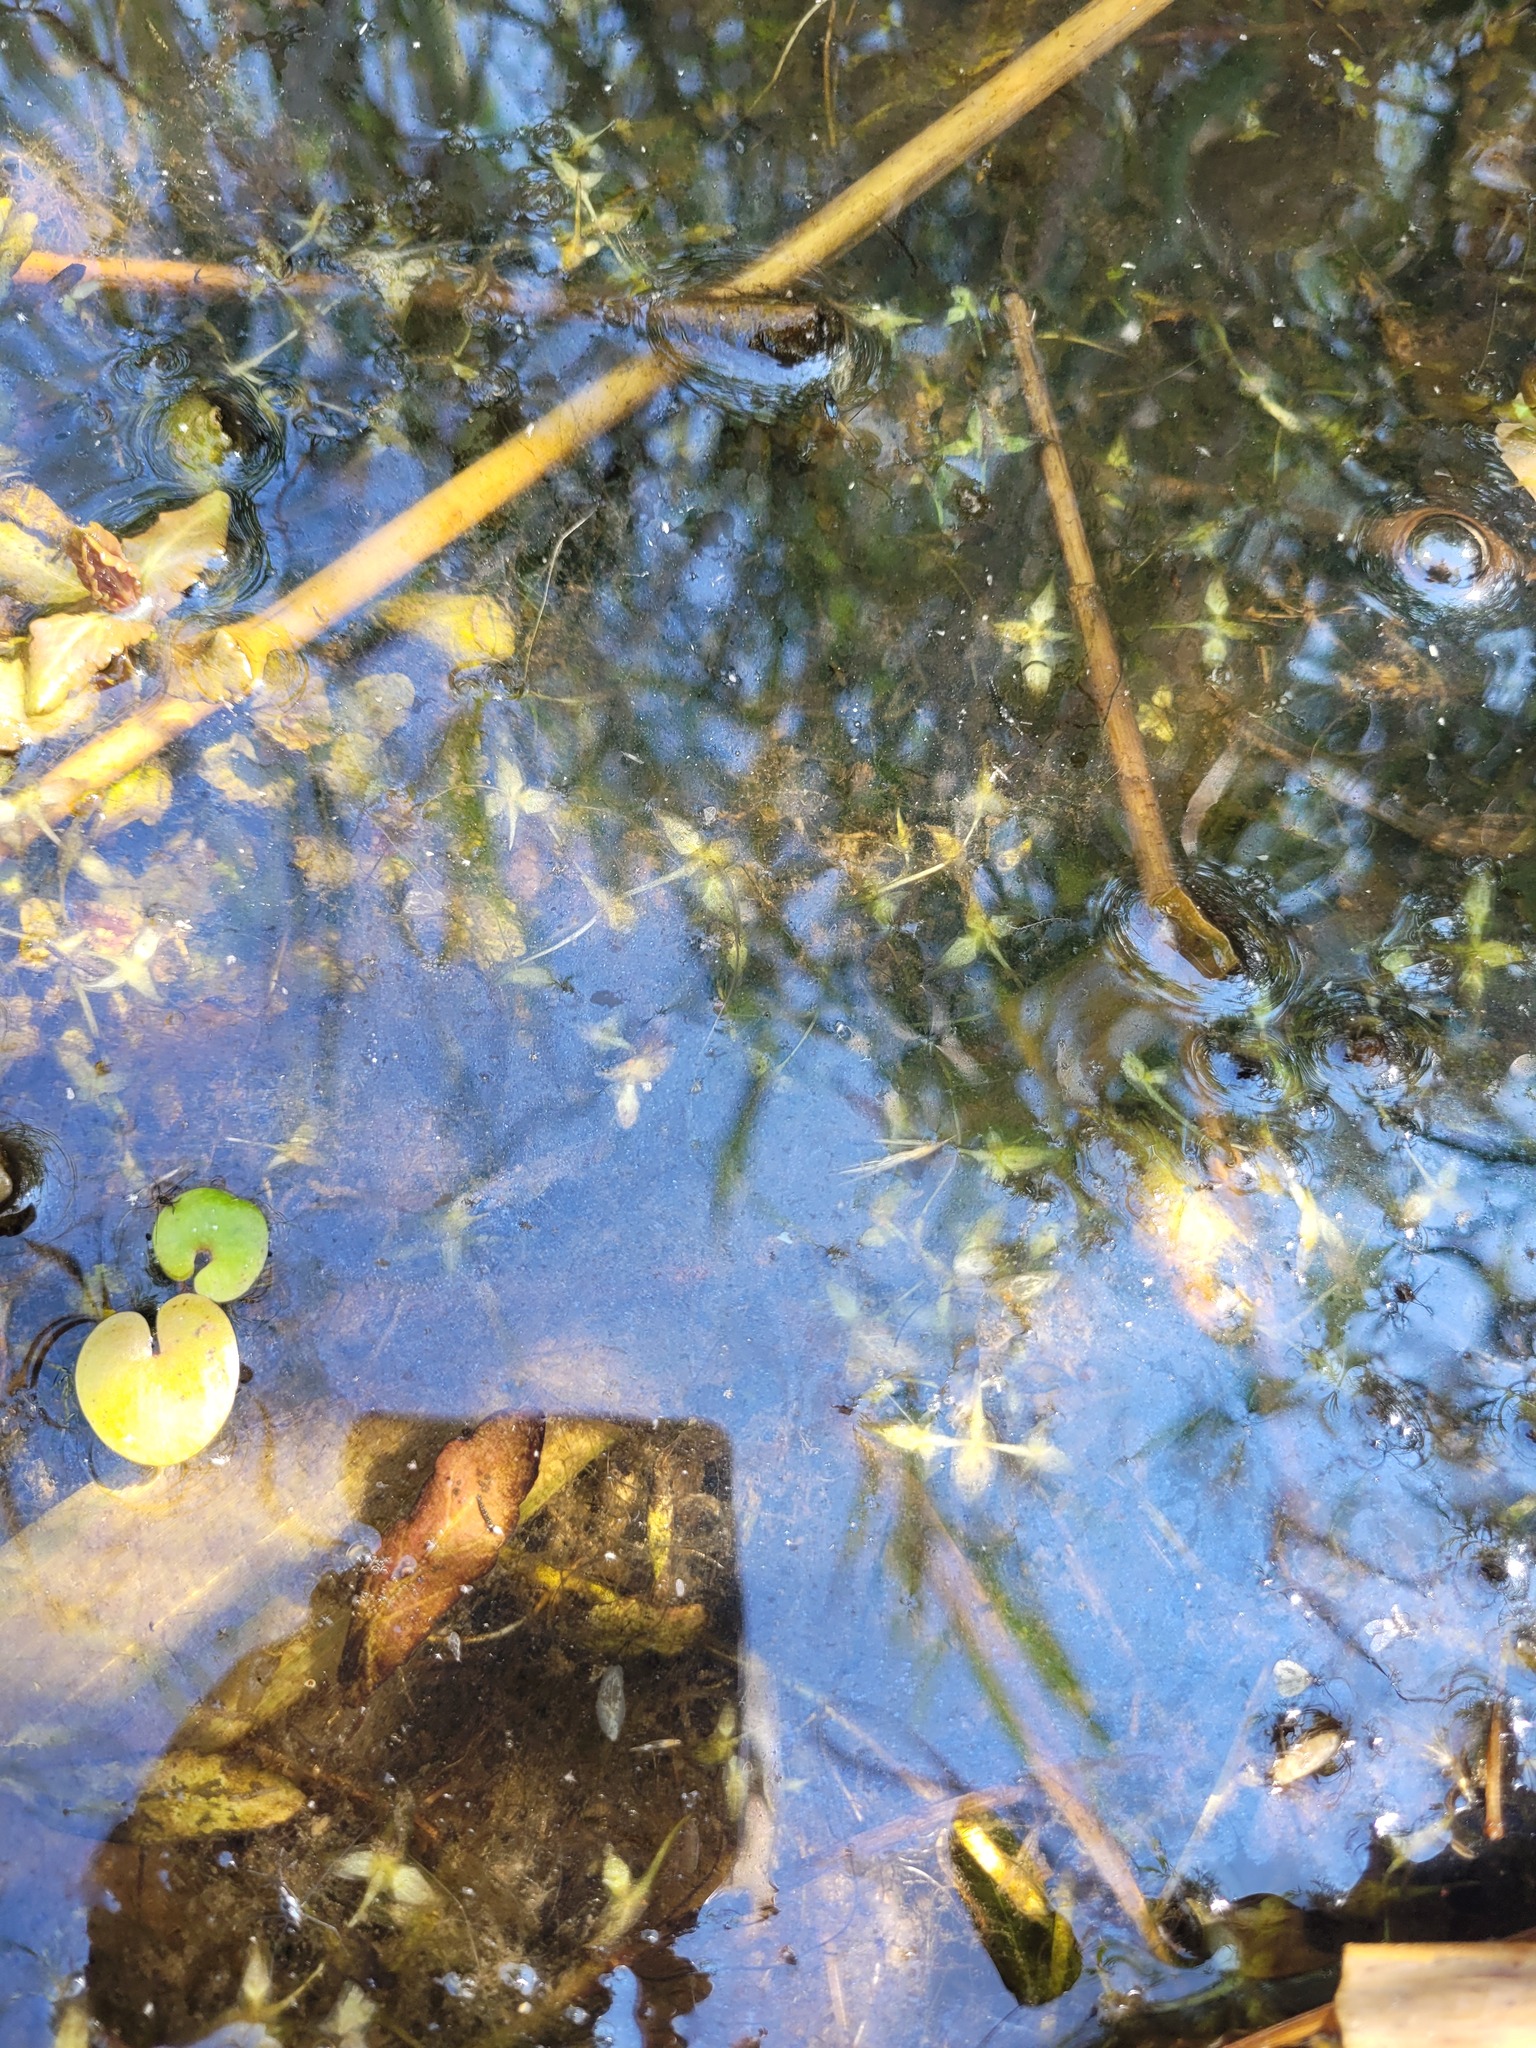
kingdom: Plantae
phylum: Tracheophyta
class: Liliopsida
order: Alismatales
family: Araceae
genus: Lemna
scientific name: Lemna trisulca
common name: Ivy-leaved duckweed
